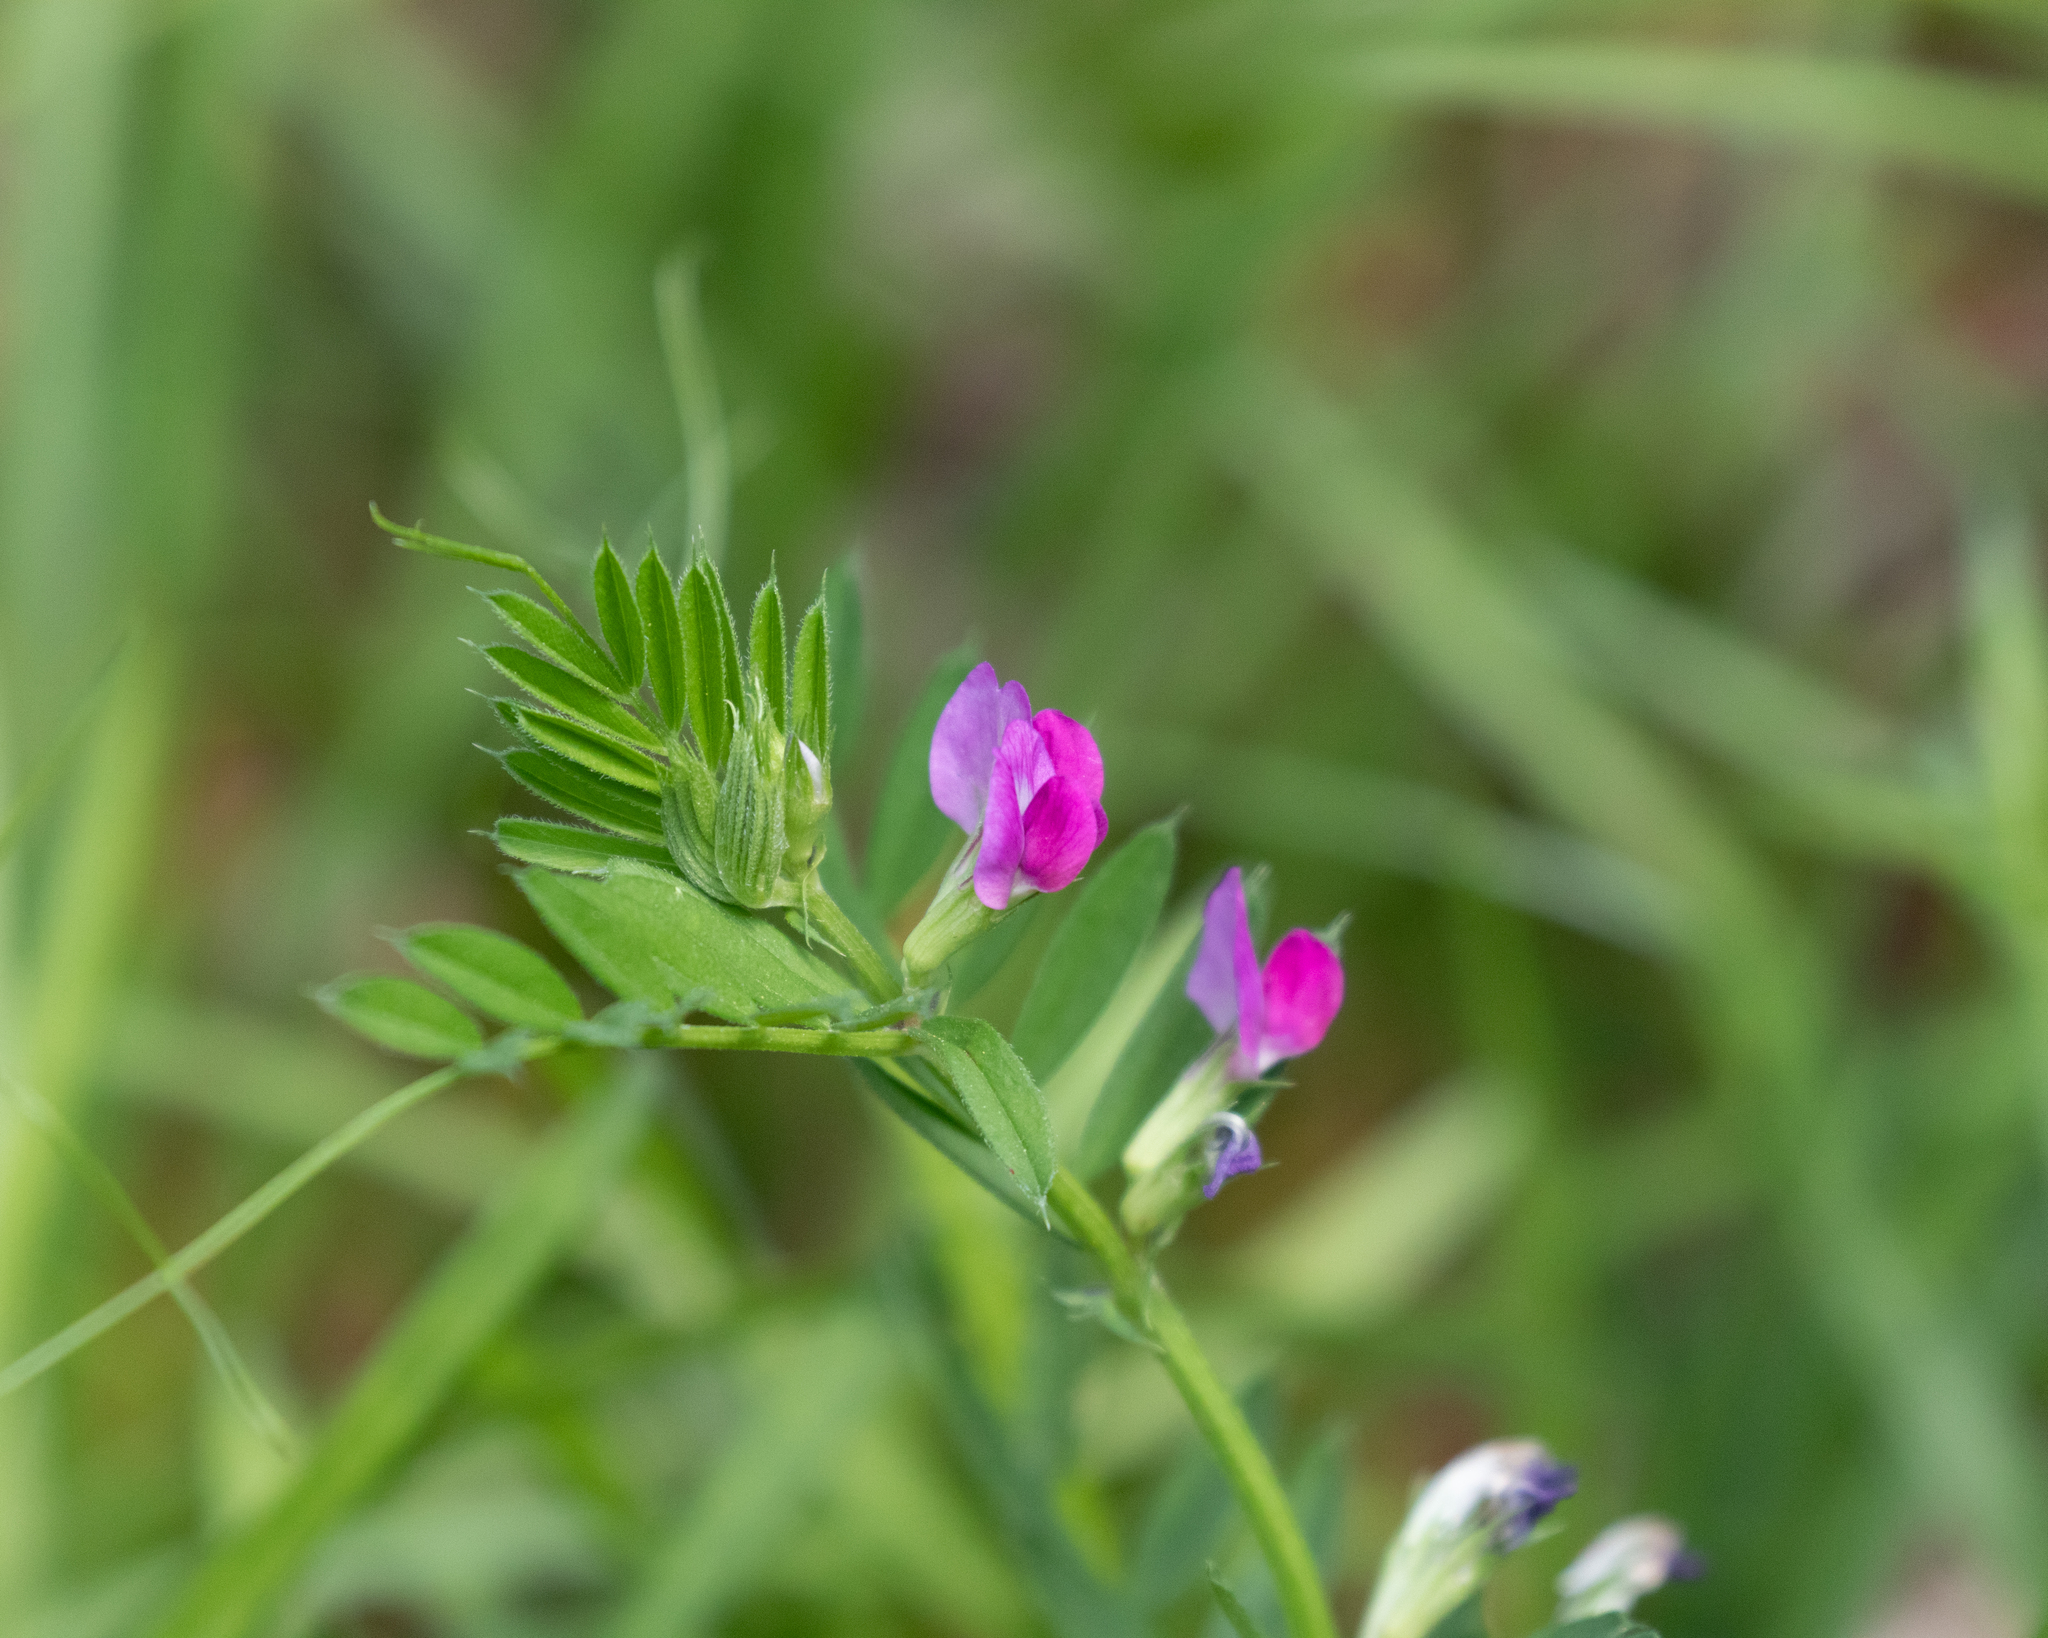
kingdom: Plantae
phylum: Tracheophyta
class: Magnoliopsida
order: Fabales
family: Fabaceae
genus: Vicia
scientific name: Vicia sativa
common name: Garden vetch
